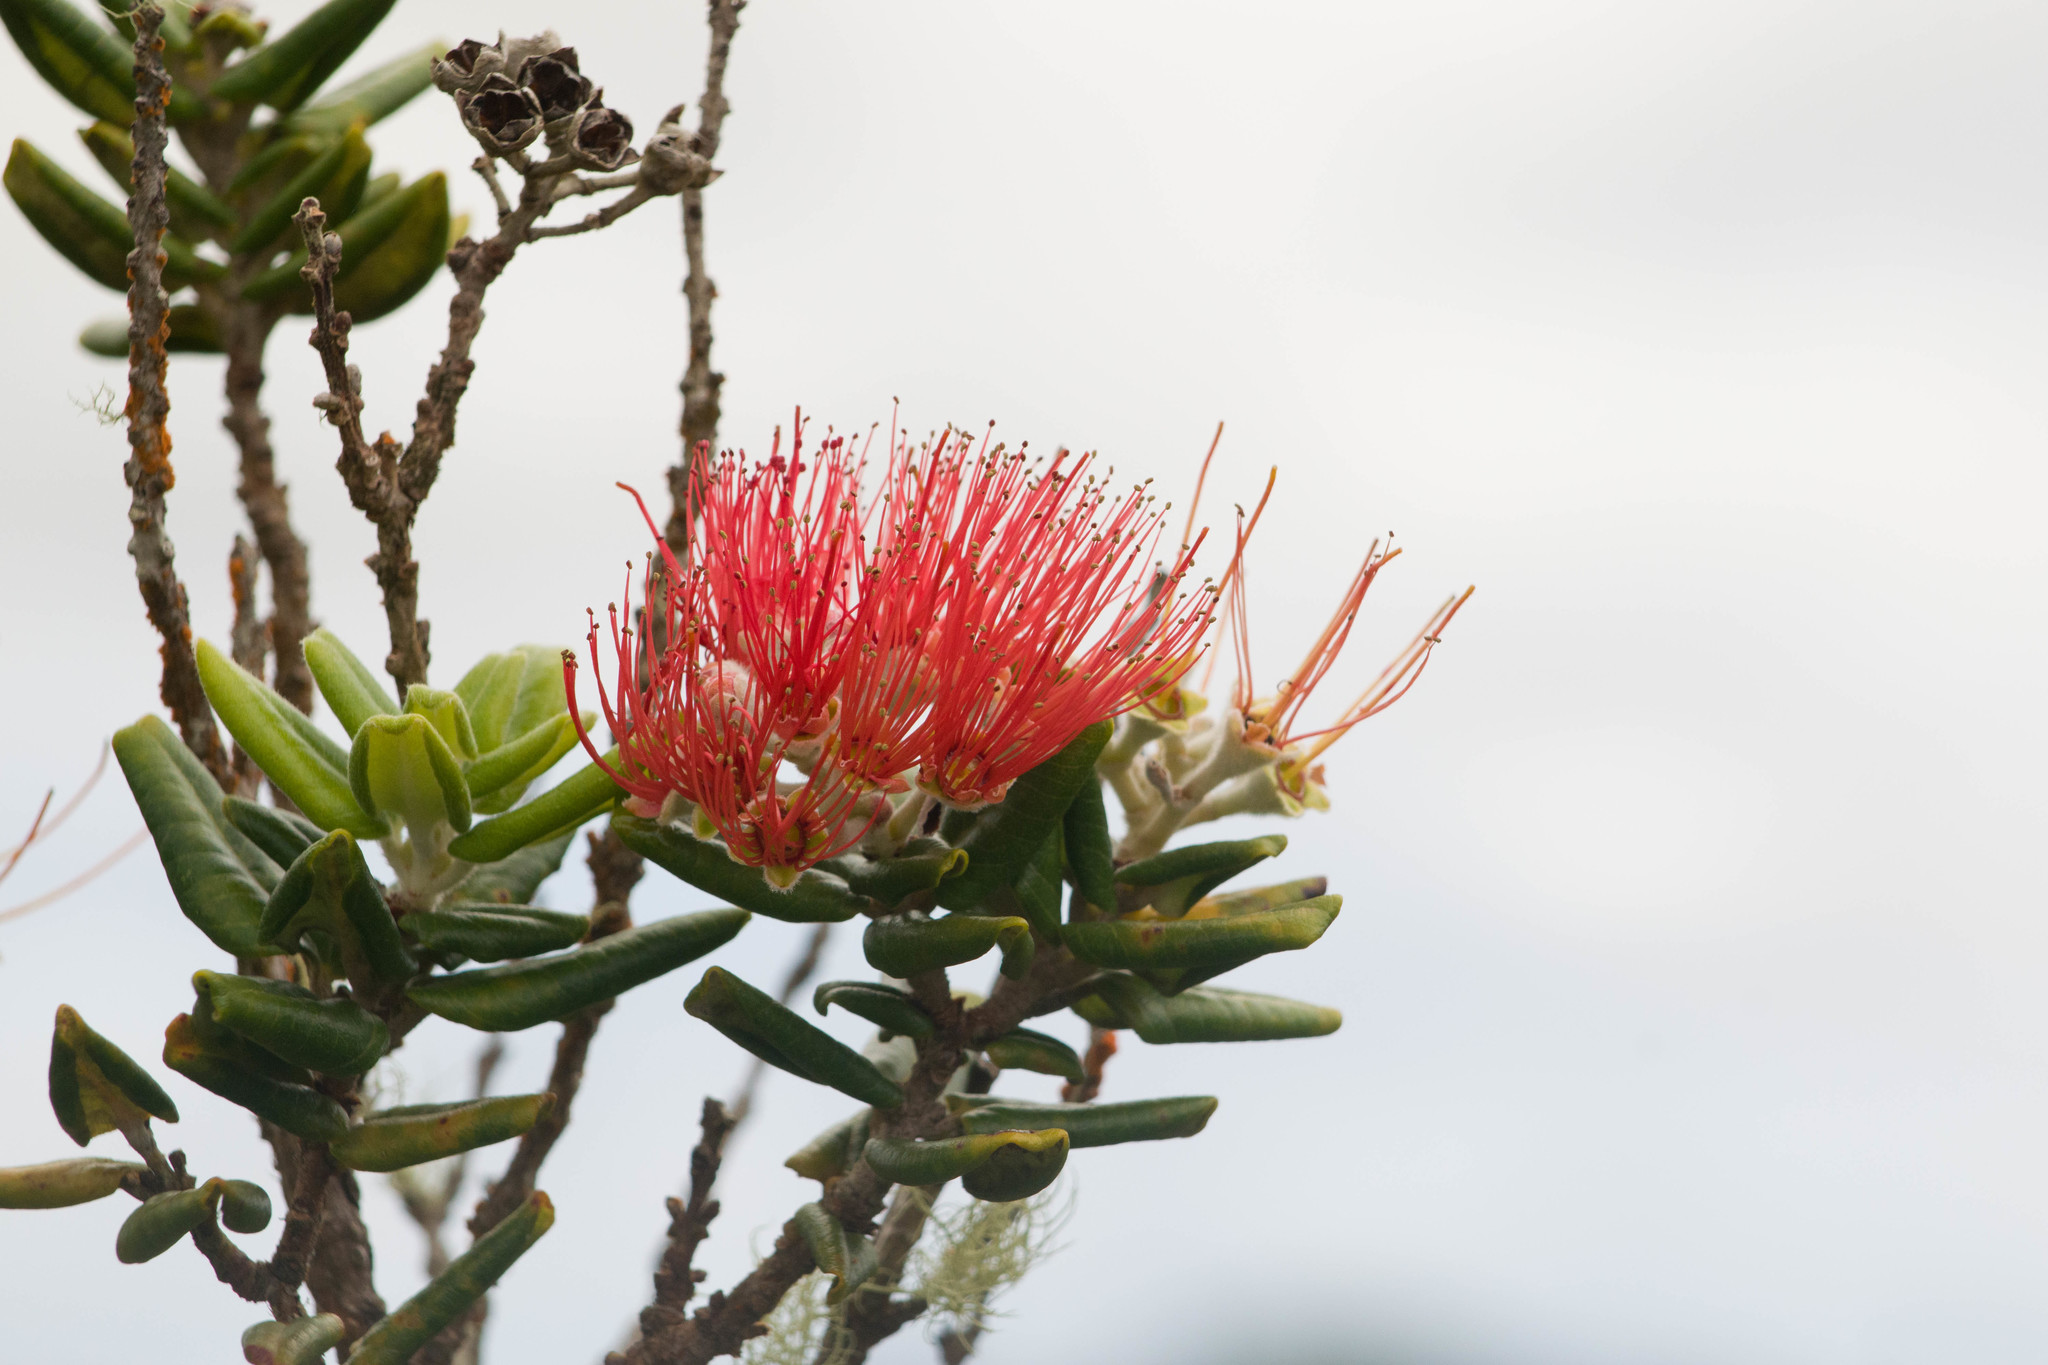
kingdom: Plantae
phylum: Tracheophyta
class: Magnoliopsida
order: Myrtales
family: Myrtaceae
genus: Metrosideros
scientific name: Metrosideros polymorpha
